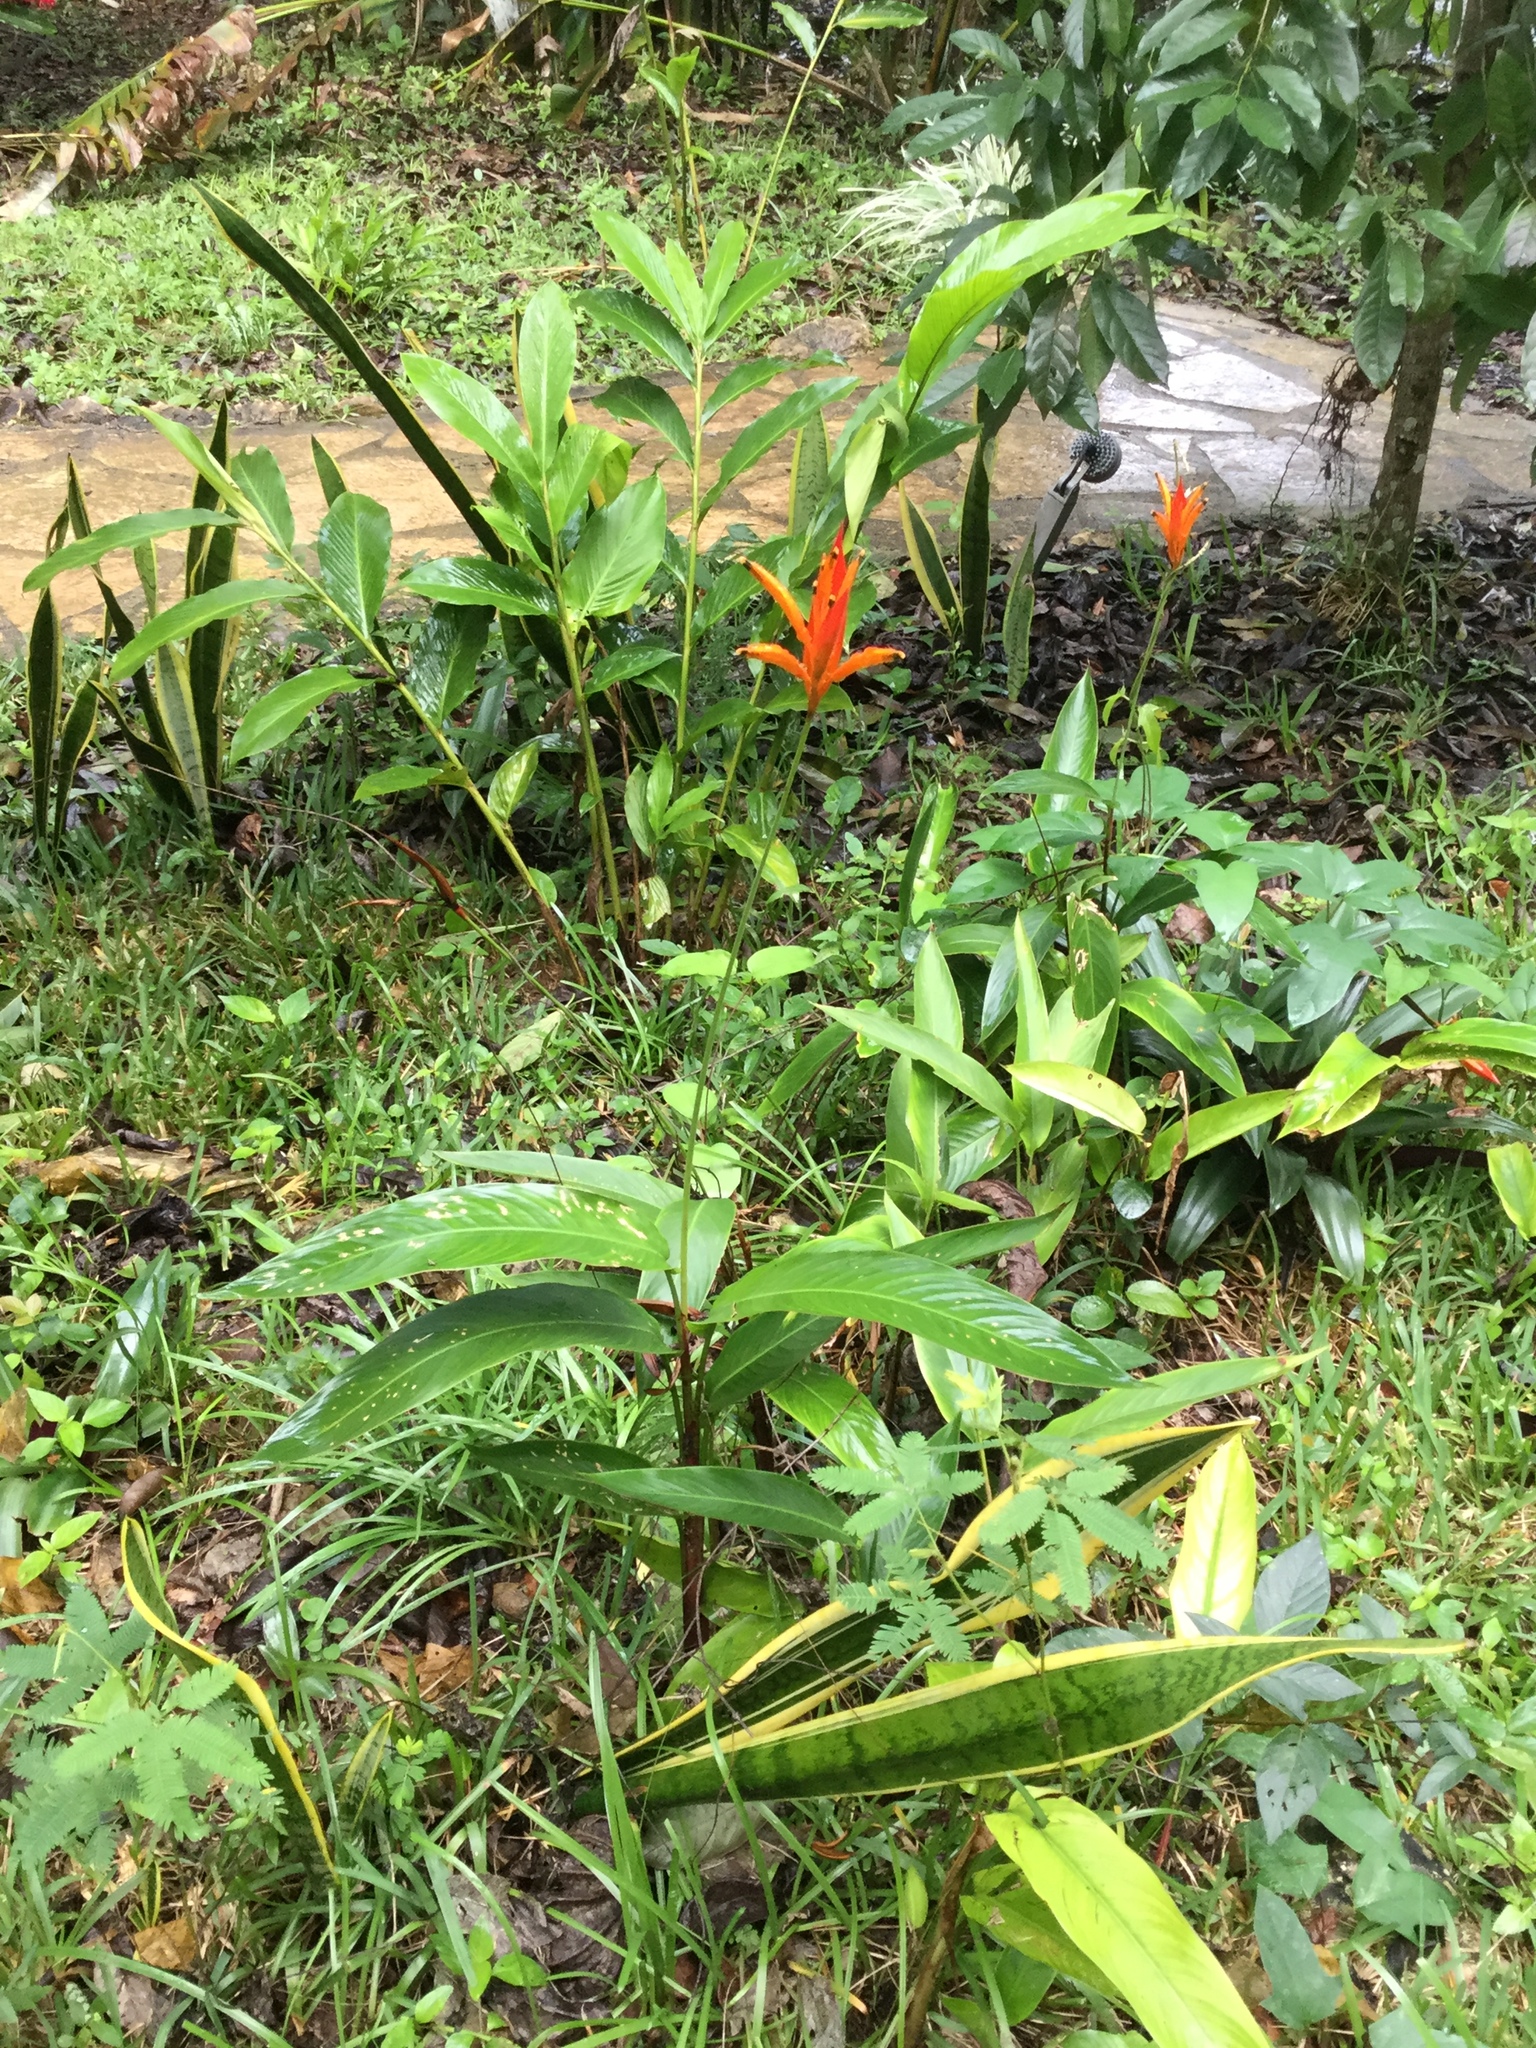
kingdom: Plantae
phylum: Tracheophyta
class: Liliopsida
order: Zingiberales
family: Heliconiaceae
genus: Heliconia
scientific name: Heliconia psittacorum
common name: Parrot's-flower
